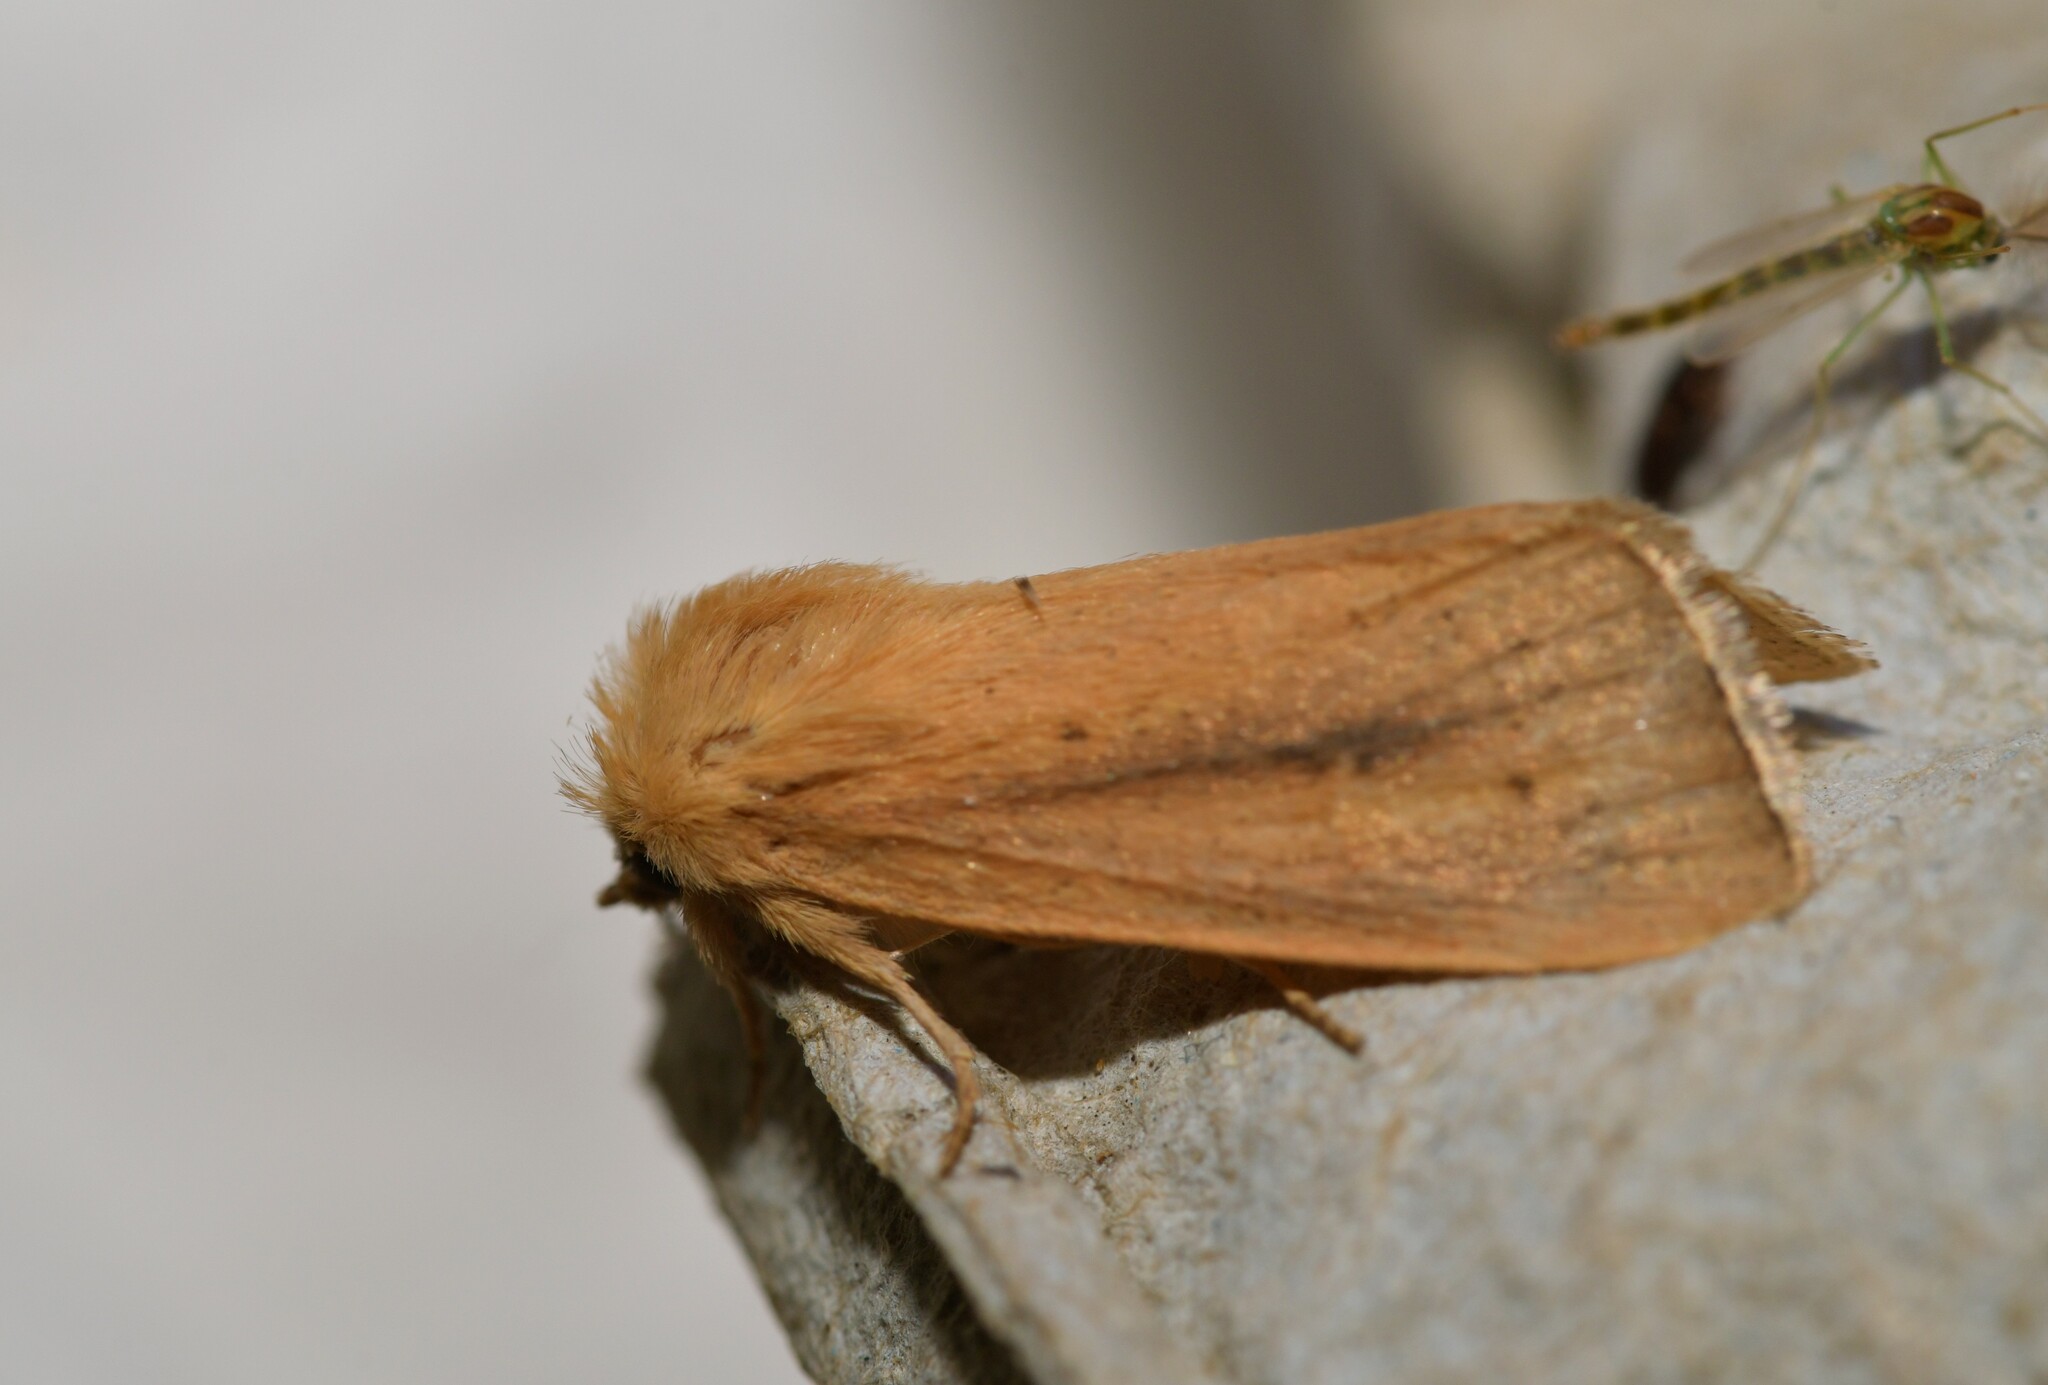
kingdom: Animalia
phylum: Arthropoda
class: Insecta
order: Lepidoptera
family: Noctuidae
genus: Sesamia
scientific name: Sesamia nonagrioides
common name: Pink stem borer
